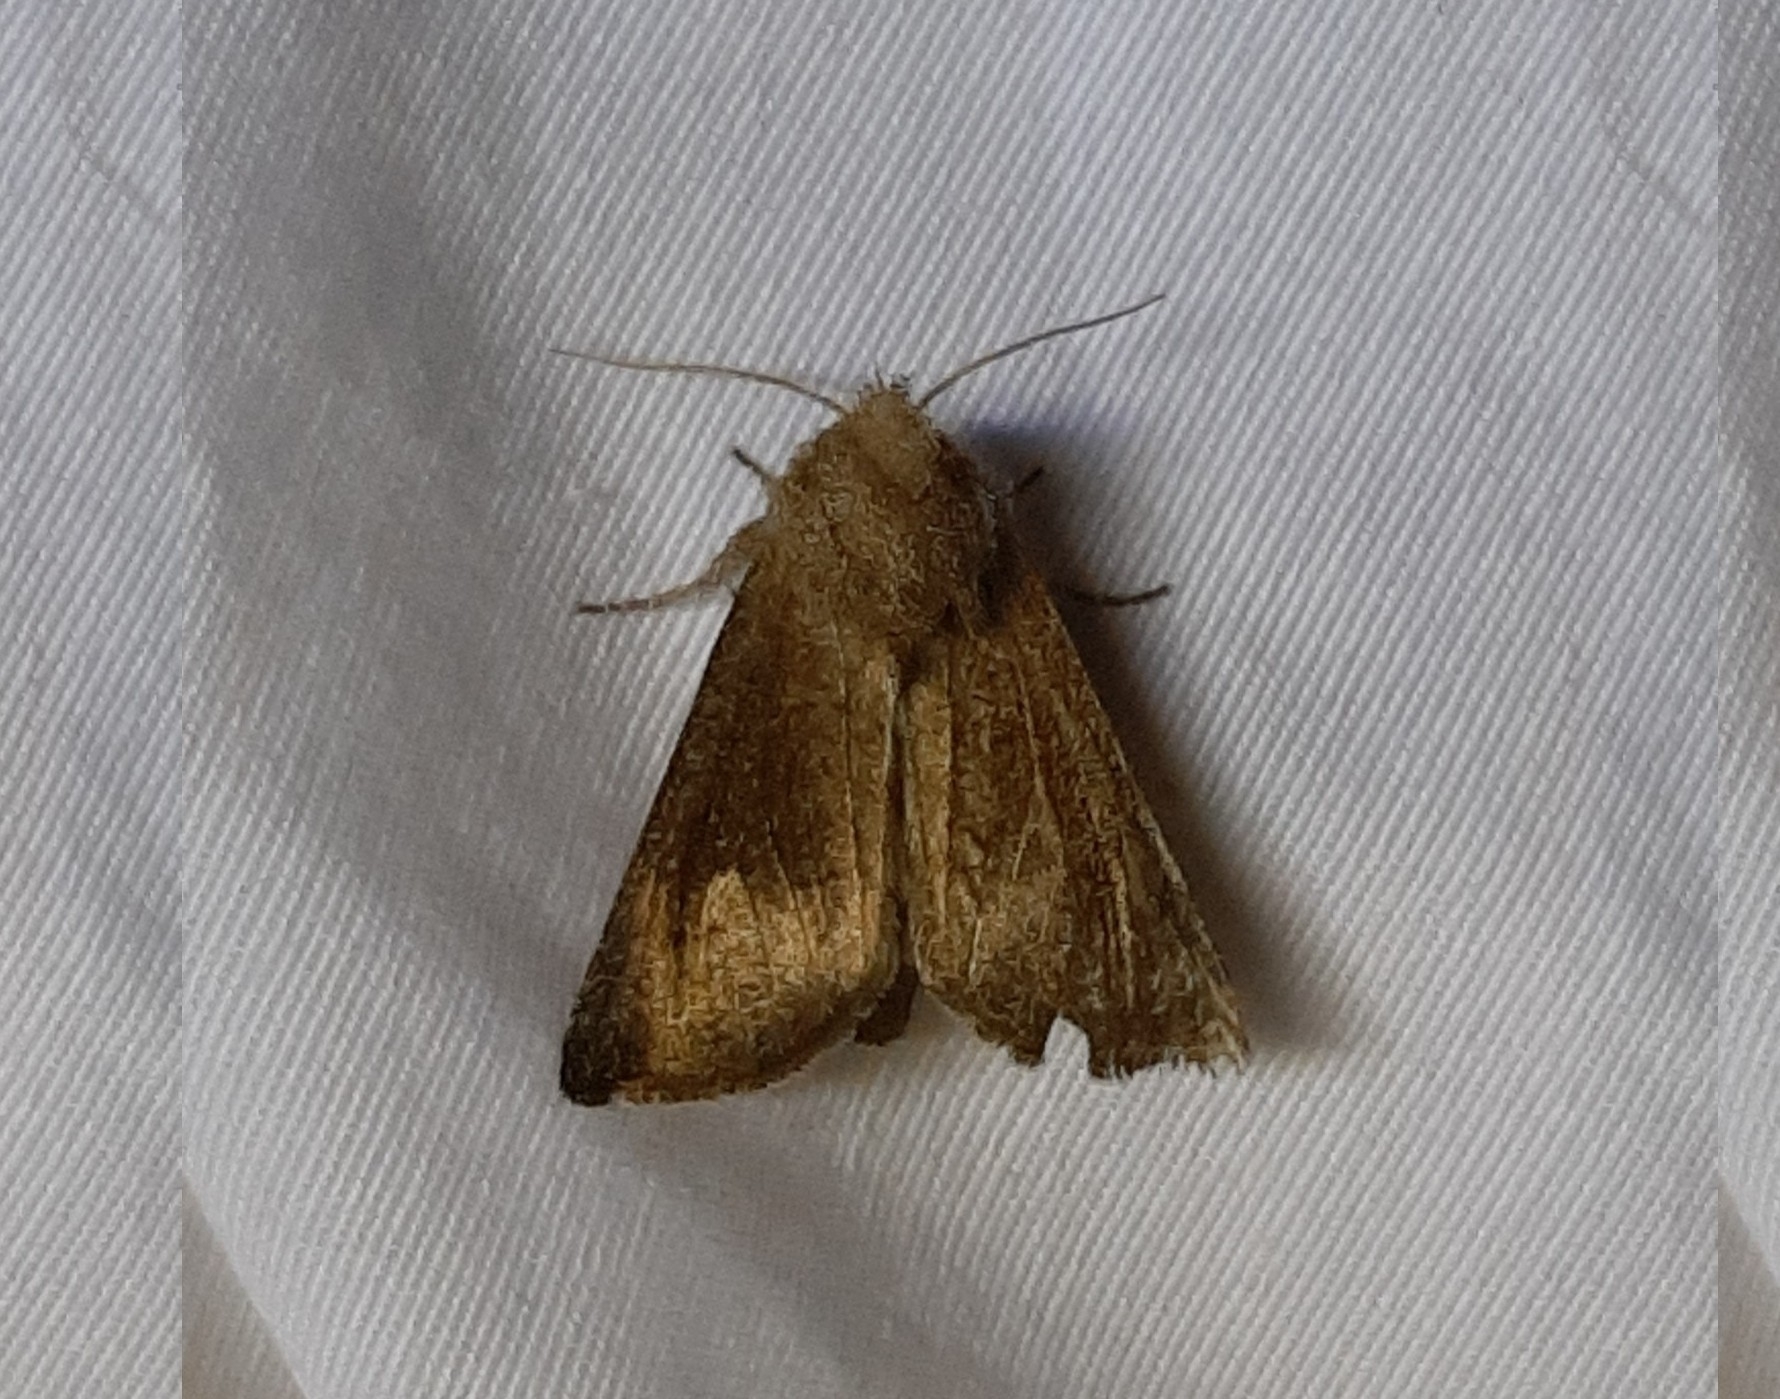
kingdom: Animalia
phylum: Arthropoda
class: Insecta
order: Lepidoptera
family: Noctuidae
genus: Papaipema
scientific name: Papaipema beeriana
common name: Blazing star stem borer
